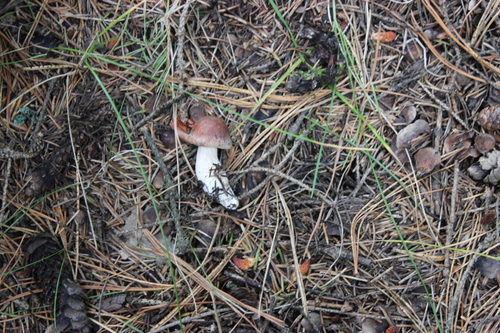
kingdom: Fungi
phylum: Basidiomycota
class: Agaricomycetes
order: Agaricales
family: Tricholomataceae
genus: Tricholoma
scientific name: Tricholoma fulvum
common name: Birch knight
